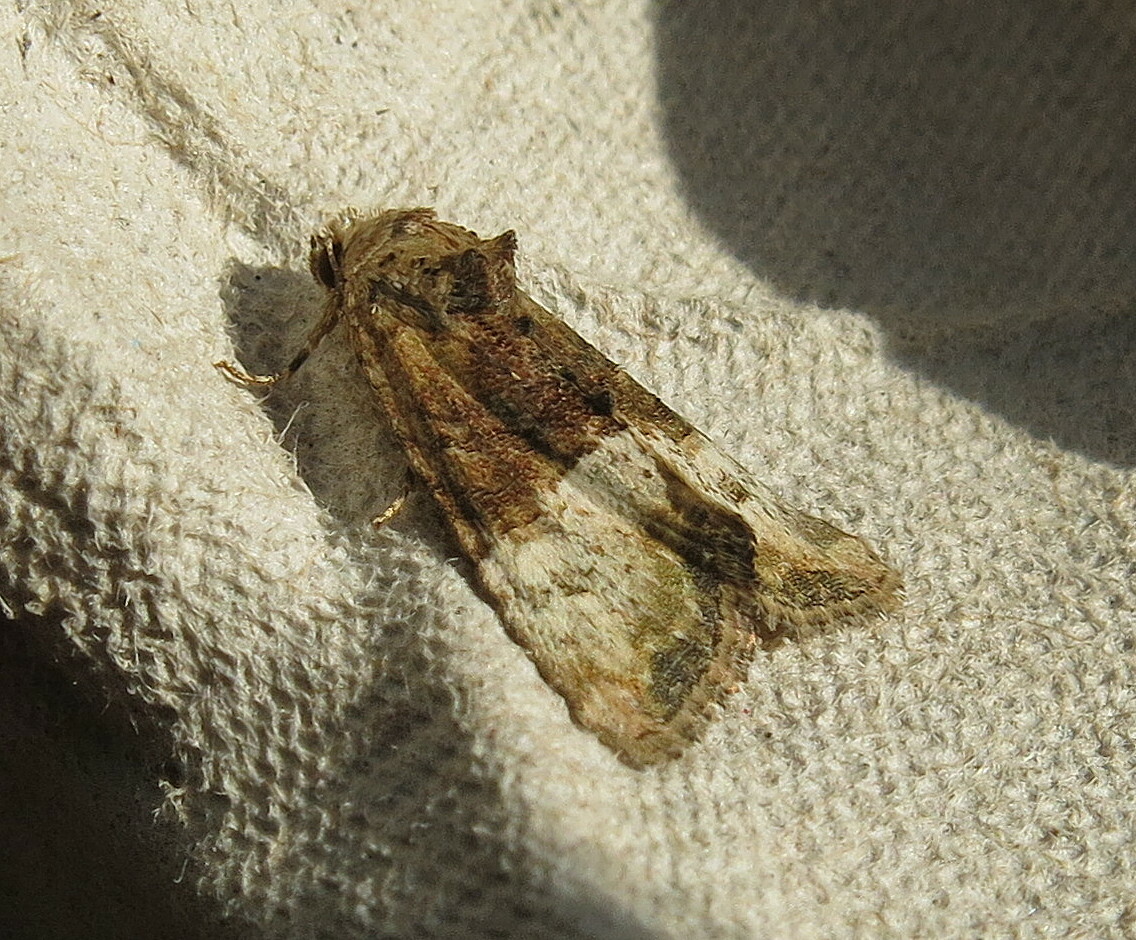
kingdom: Animalia
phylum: Arthropoda
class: Insecta
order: Lepidoptera
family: Noctuidae
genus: Mesoligia
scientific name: Mesoligia furuncula
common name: Cloaked minor
